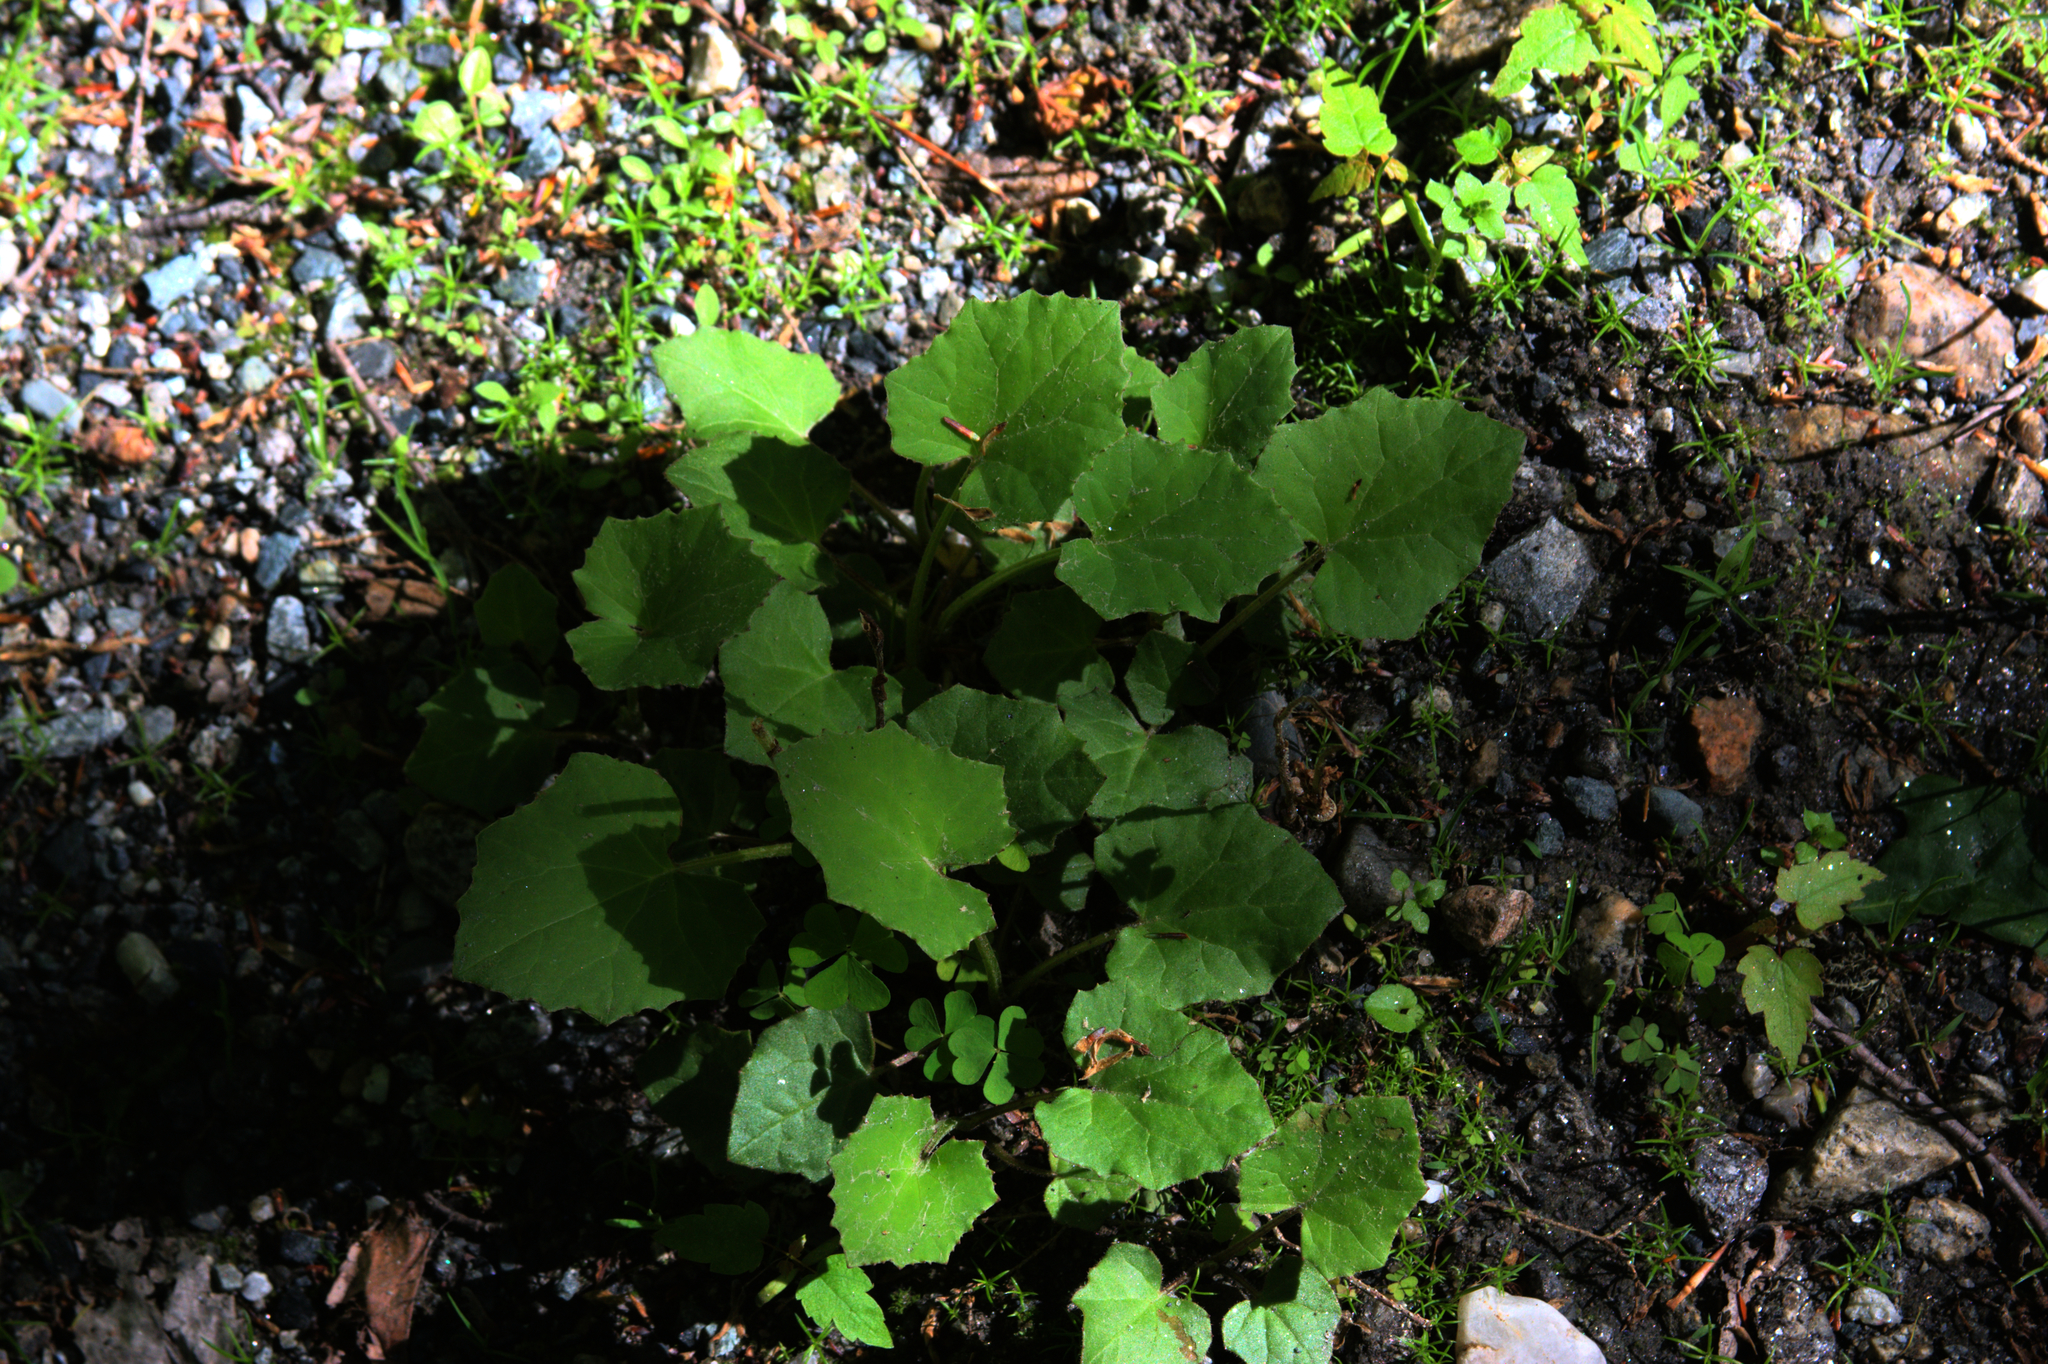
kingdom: Plantae
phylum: Tracheophyta
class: Magnoliopsida
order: Asterales
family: Asteraceae
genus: Tussilago
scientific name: Tussilago farfara
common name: Coltsfoot
